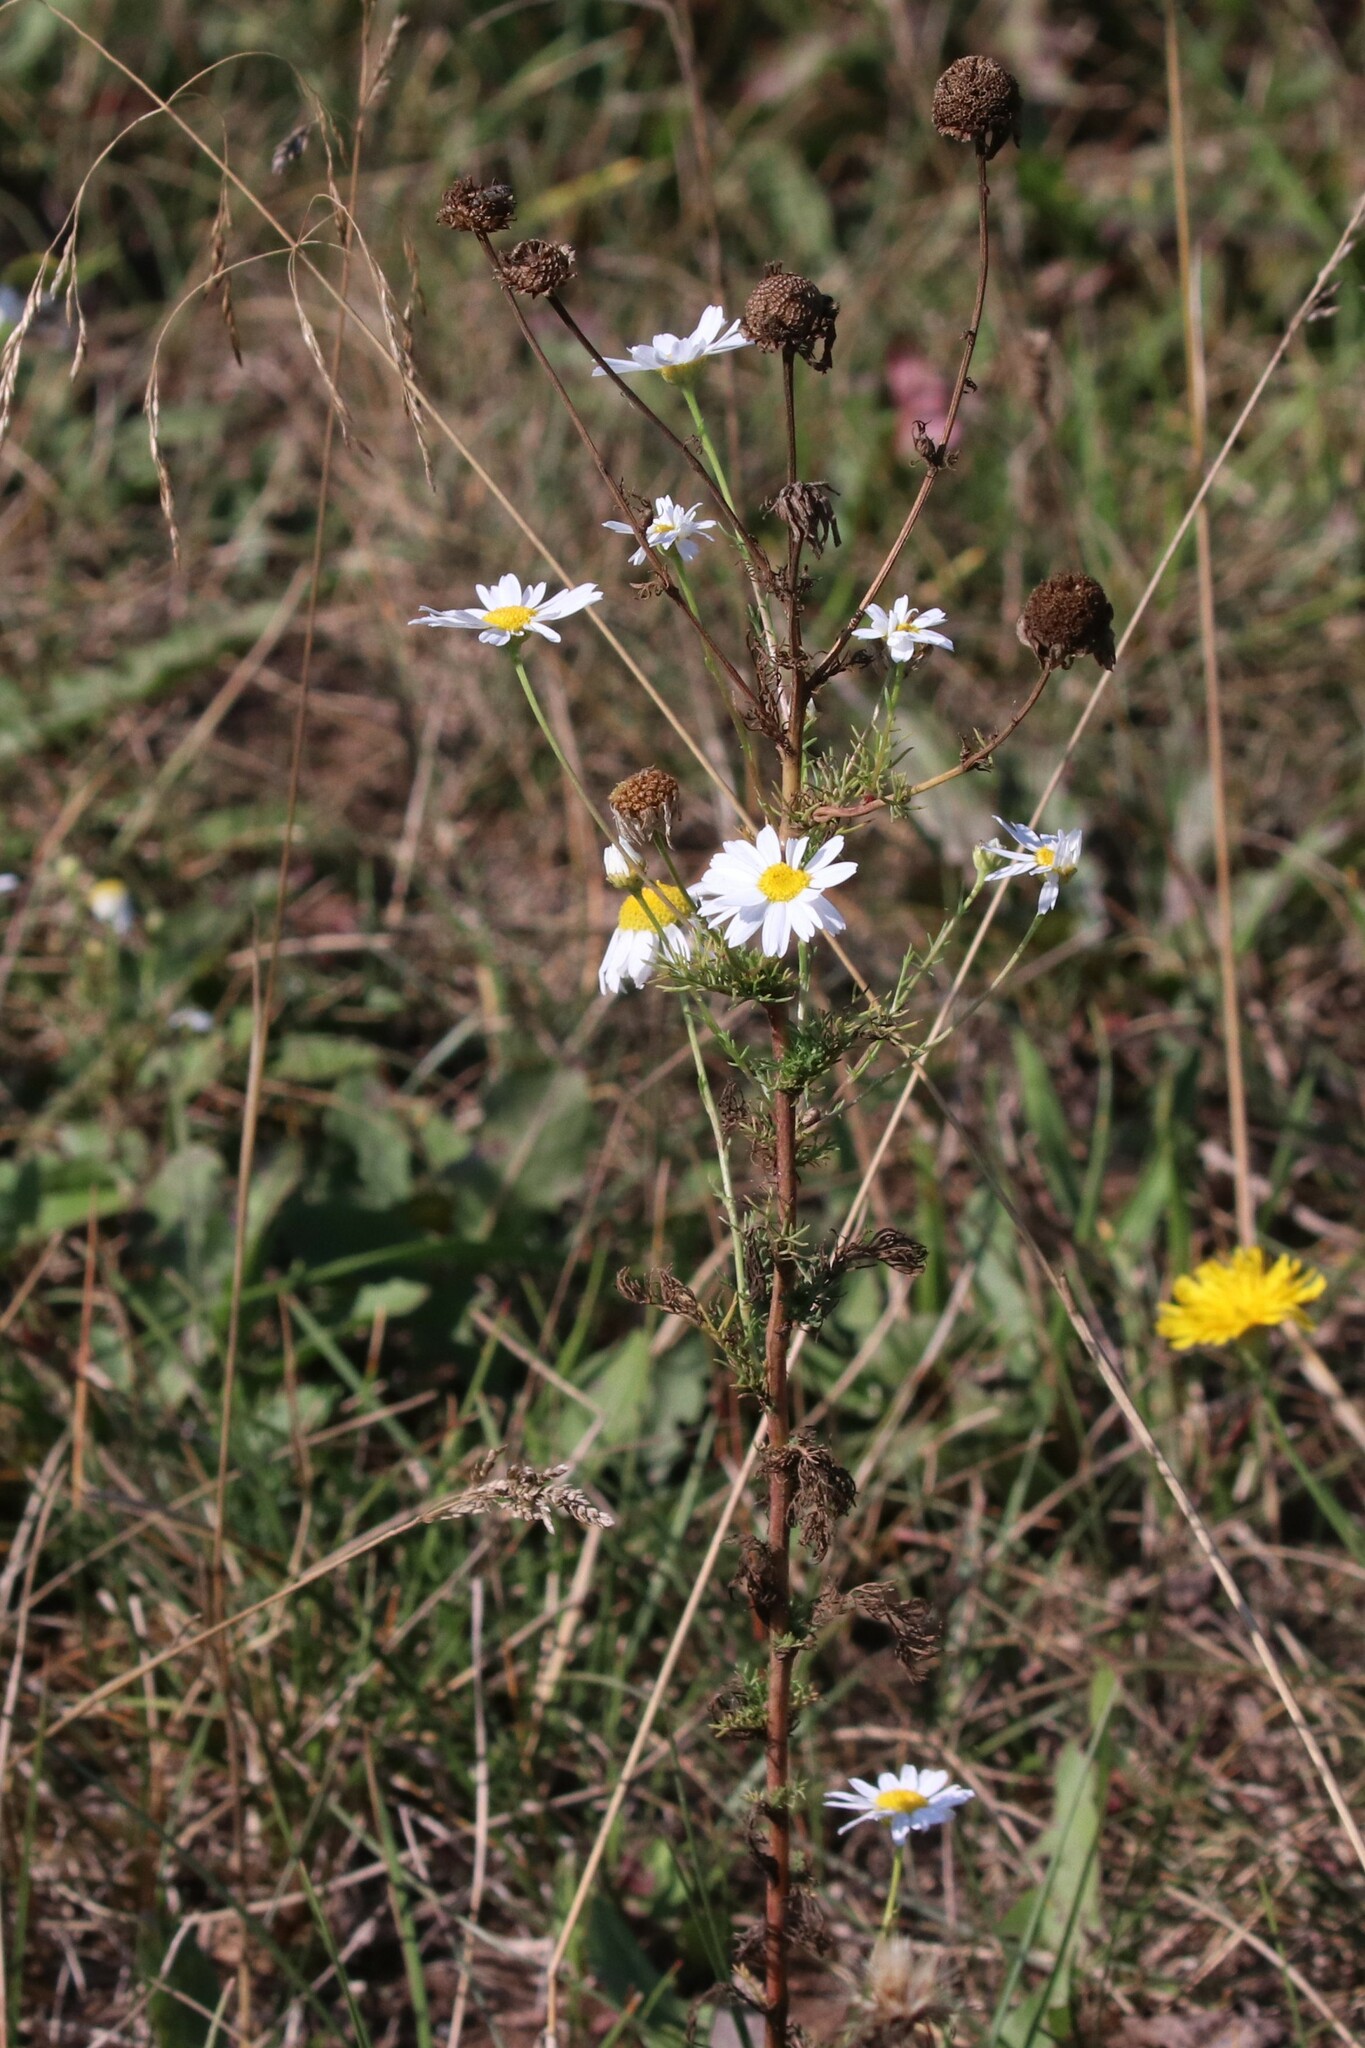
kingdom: Plantae
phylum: Tracheophyta
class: Magnoliopsida
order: Asterales
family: Asteraceae
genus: Tripleurospermum
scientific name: Tripleurospermum inodorum
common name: Scentless mayweed
